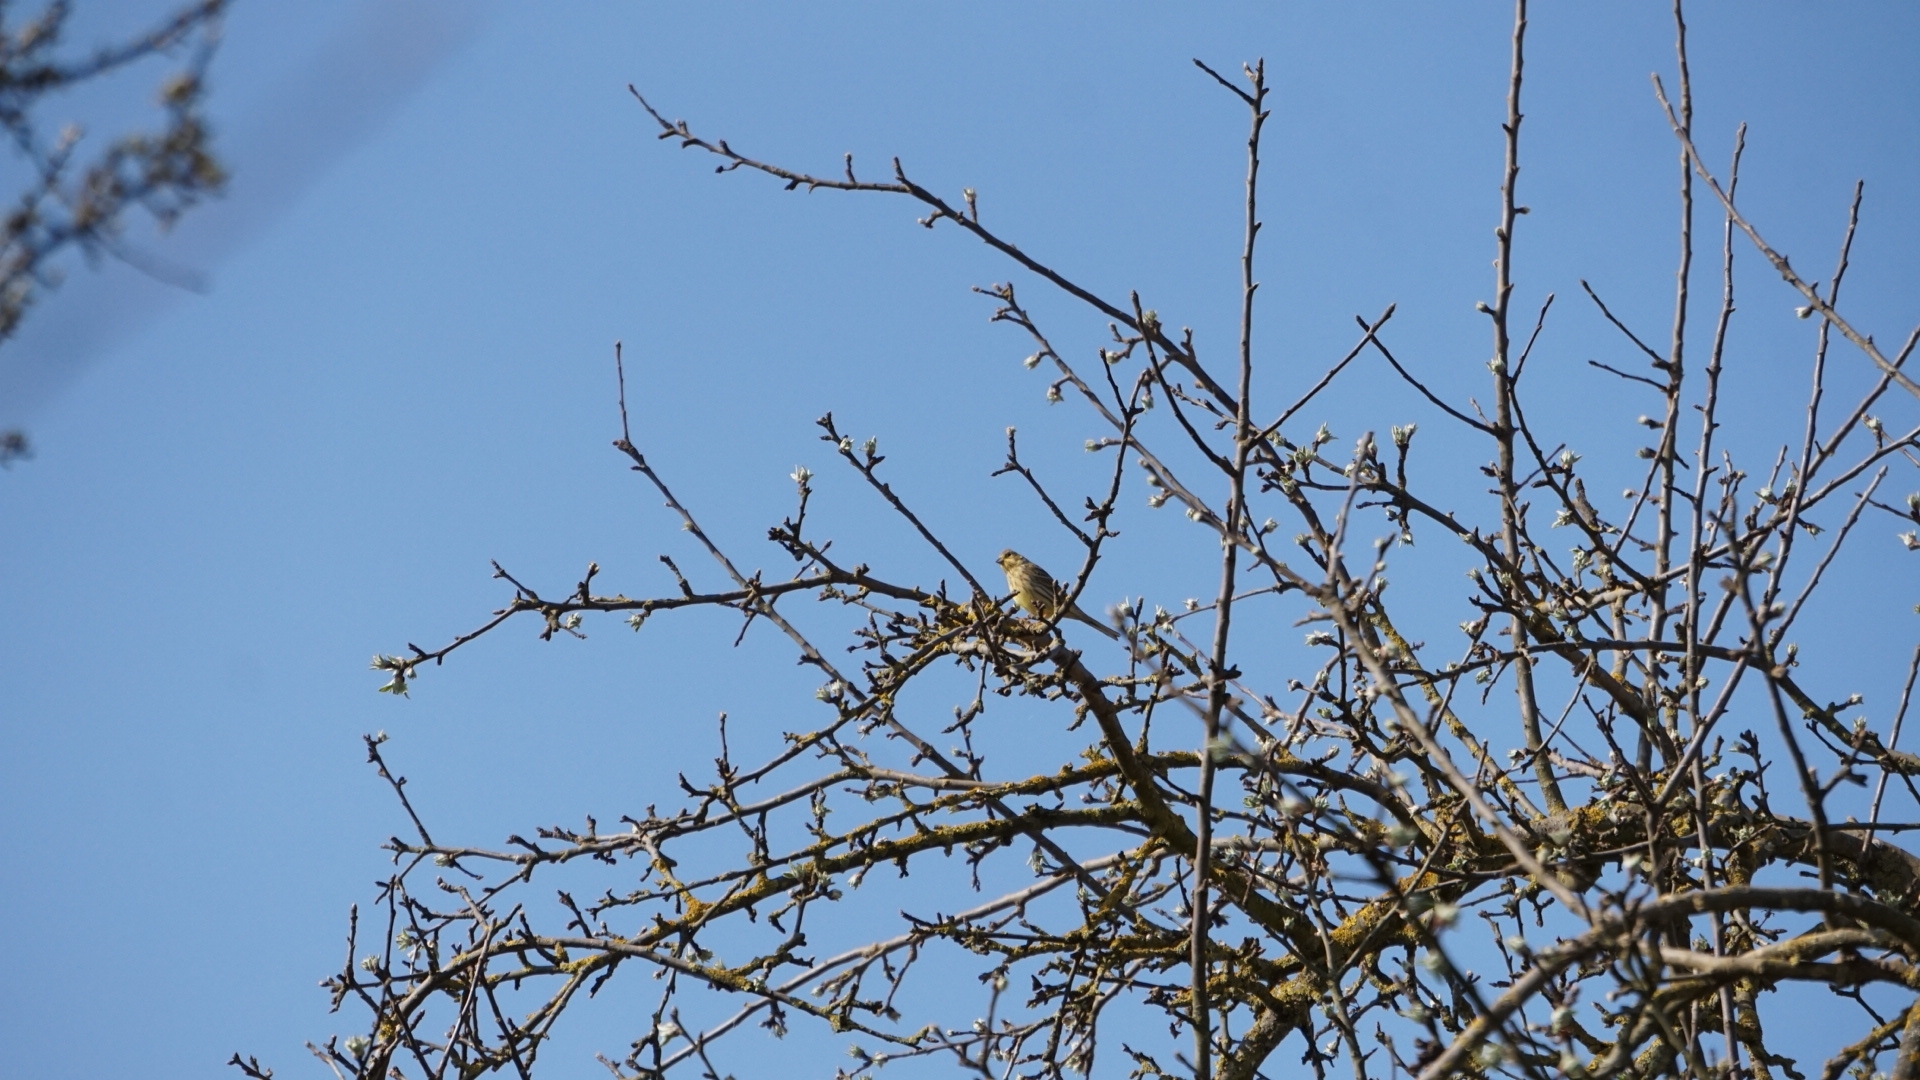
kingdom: Animalia
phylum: Chordata
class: Aves
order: Passeriformes
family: Emberizidae
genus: Emberiza
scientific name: Emberiza citrinella
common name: Yellowhammer
